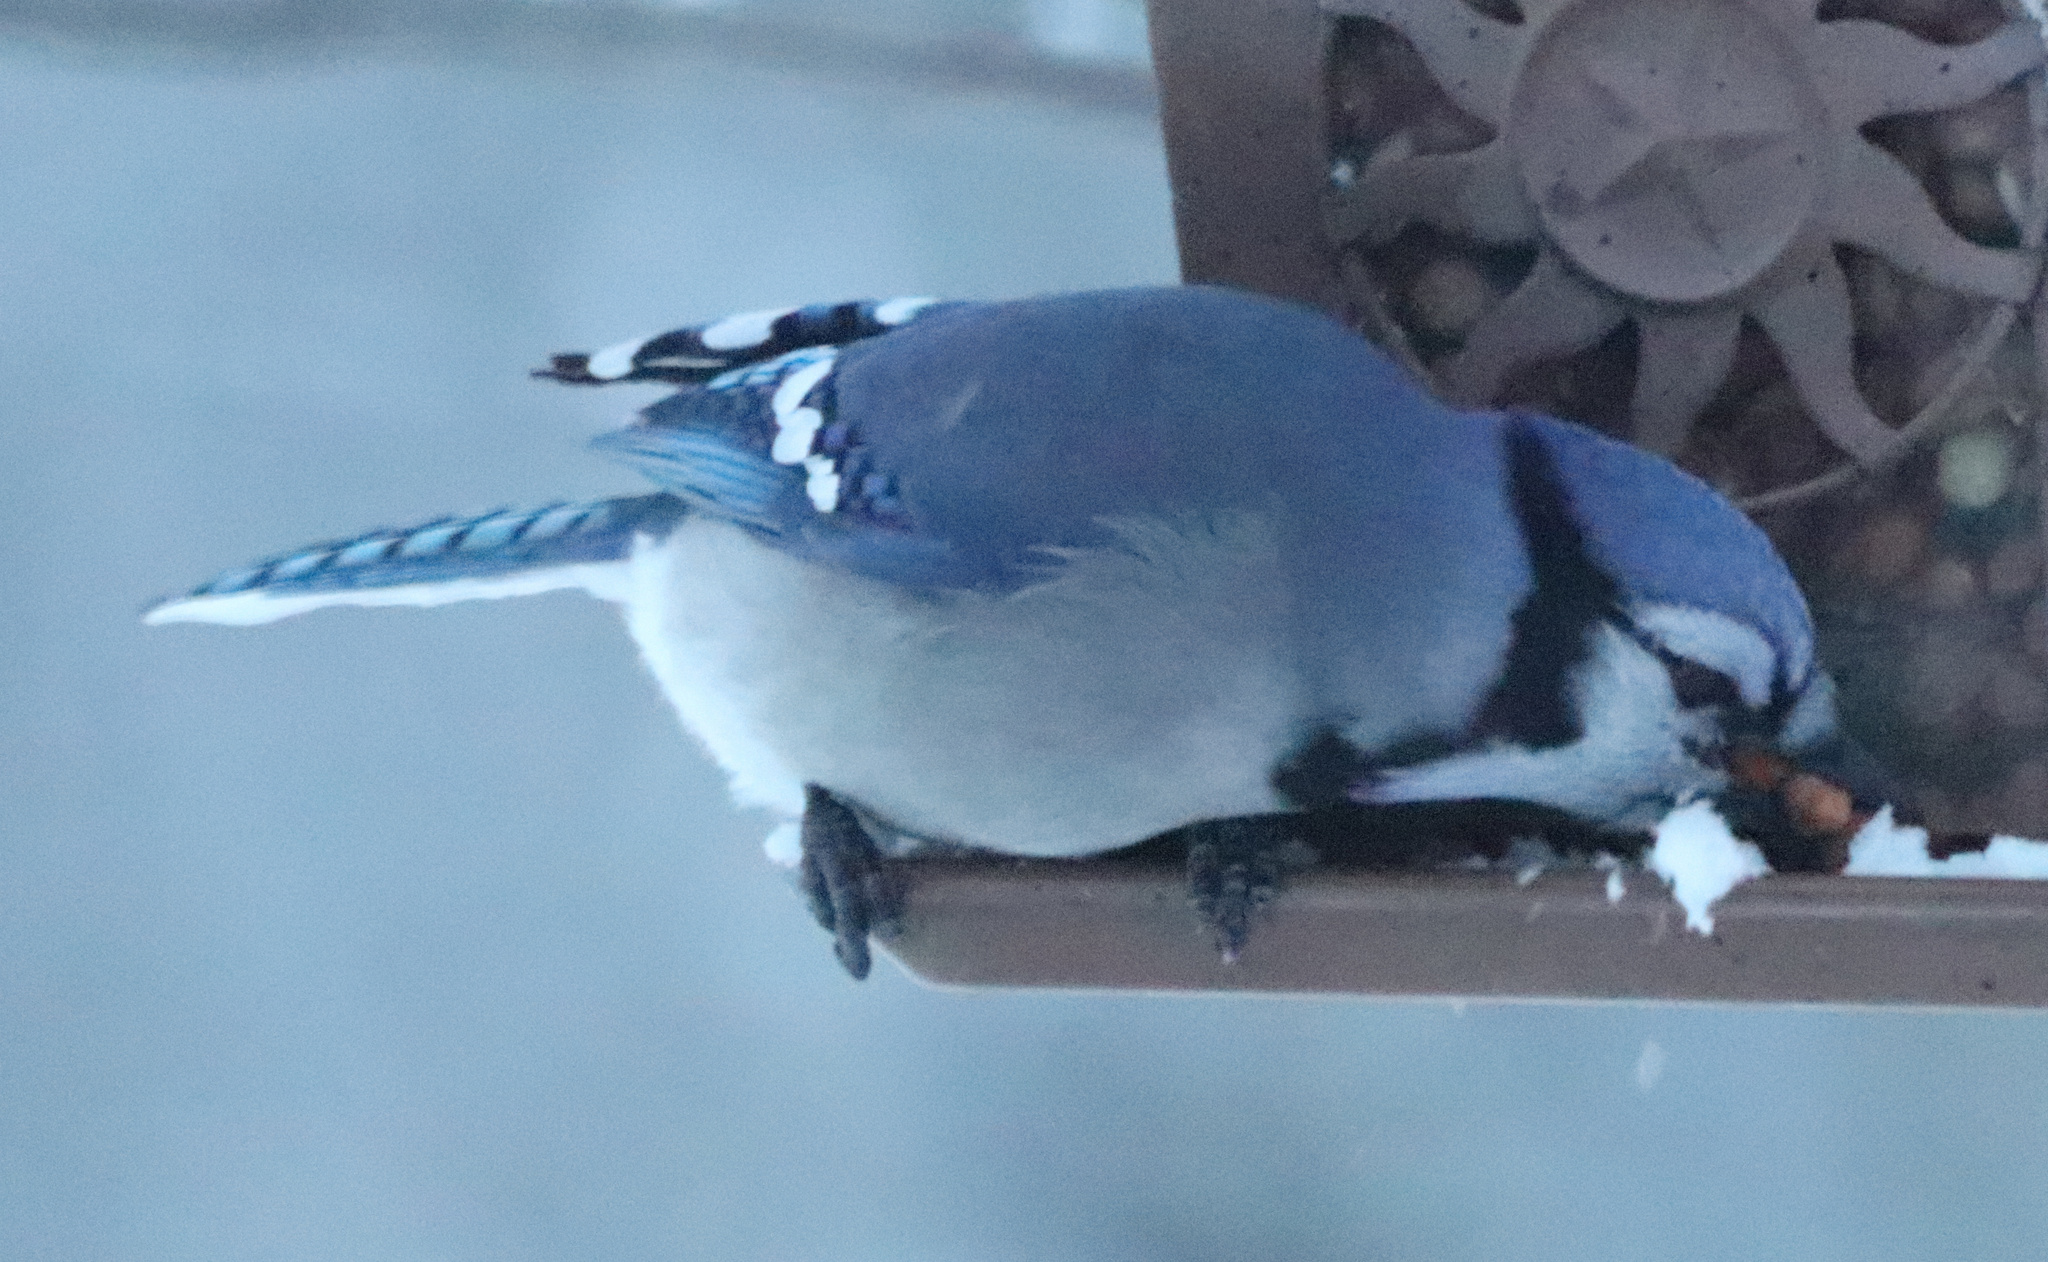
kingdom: Animalia
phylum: Chordata
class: Aves
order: Passeriformes
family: Corvidae
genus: Cyanocitta
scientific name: Cyanocitta cristata
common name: Blue jay
